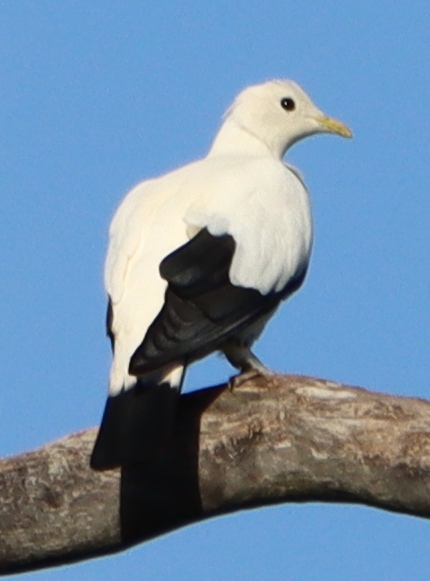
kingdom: Animalia
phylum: Chordata
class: Aves
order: Columbiformes
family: Columbidae
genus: Ducula
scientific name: Ducula spilorrhoa
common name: Torresian imperial pigeon
